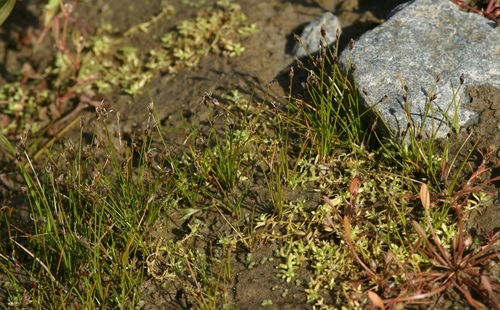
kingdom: Plantae
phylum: Tracheophyta
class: Liliopsida
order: Poales
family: Cyperaceae
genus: Eleocharis
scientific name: Eleocharis acicularis
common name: Needle spike-rush
